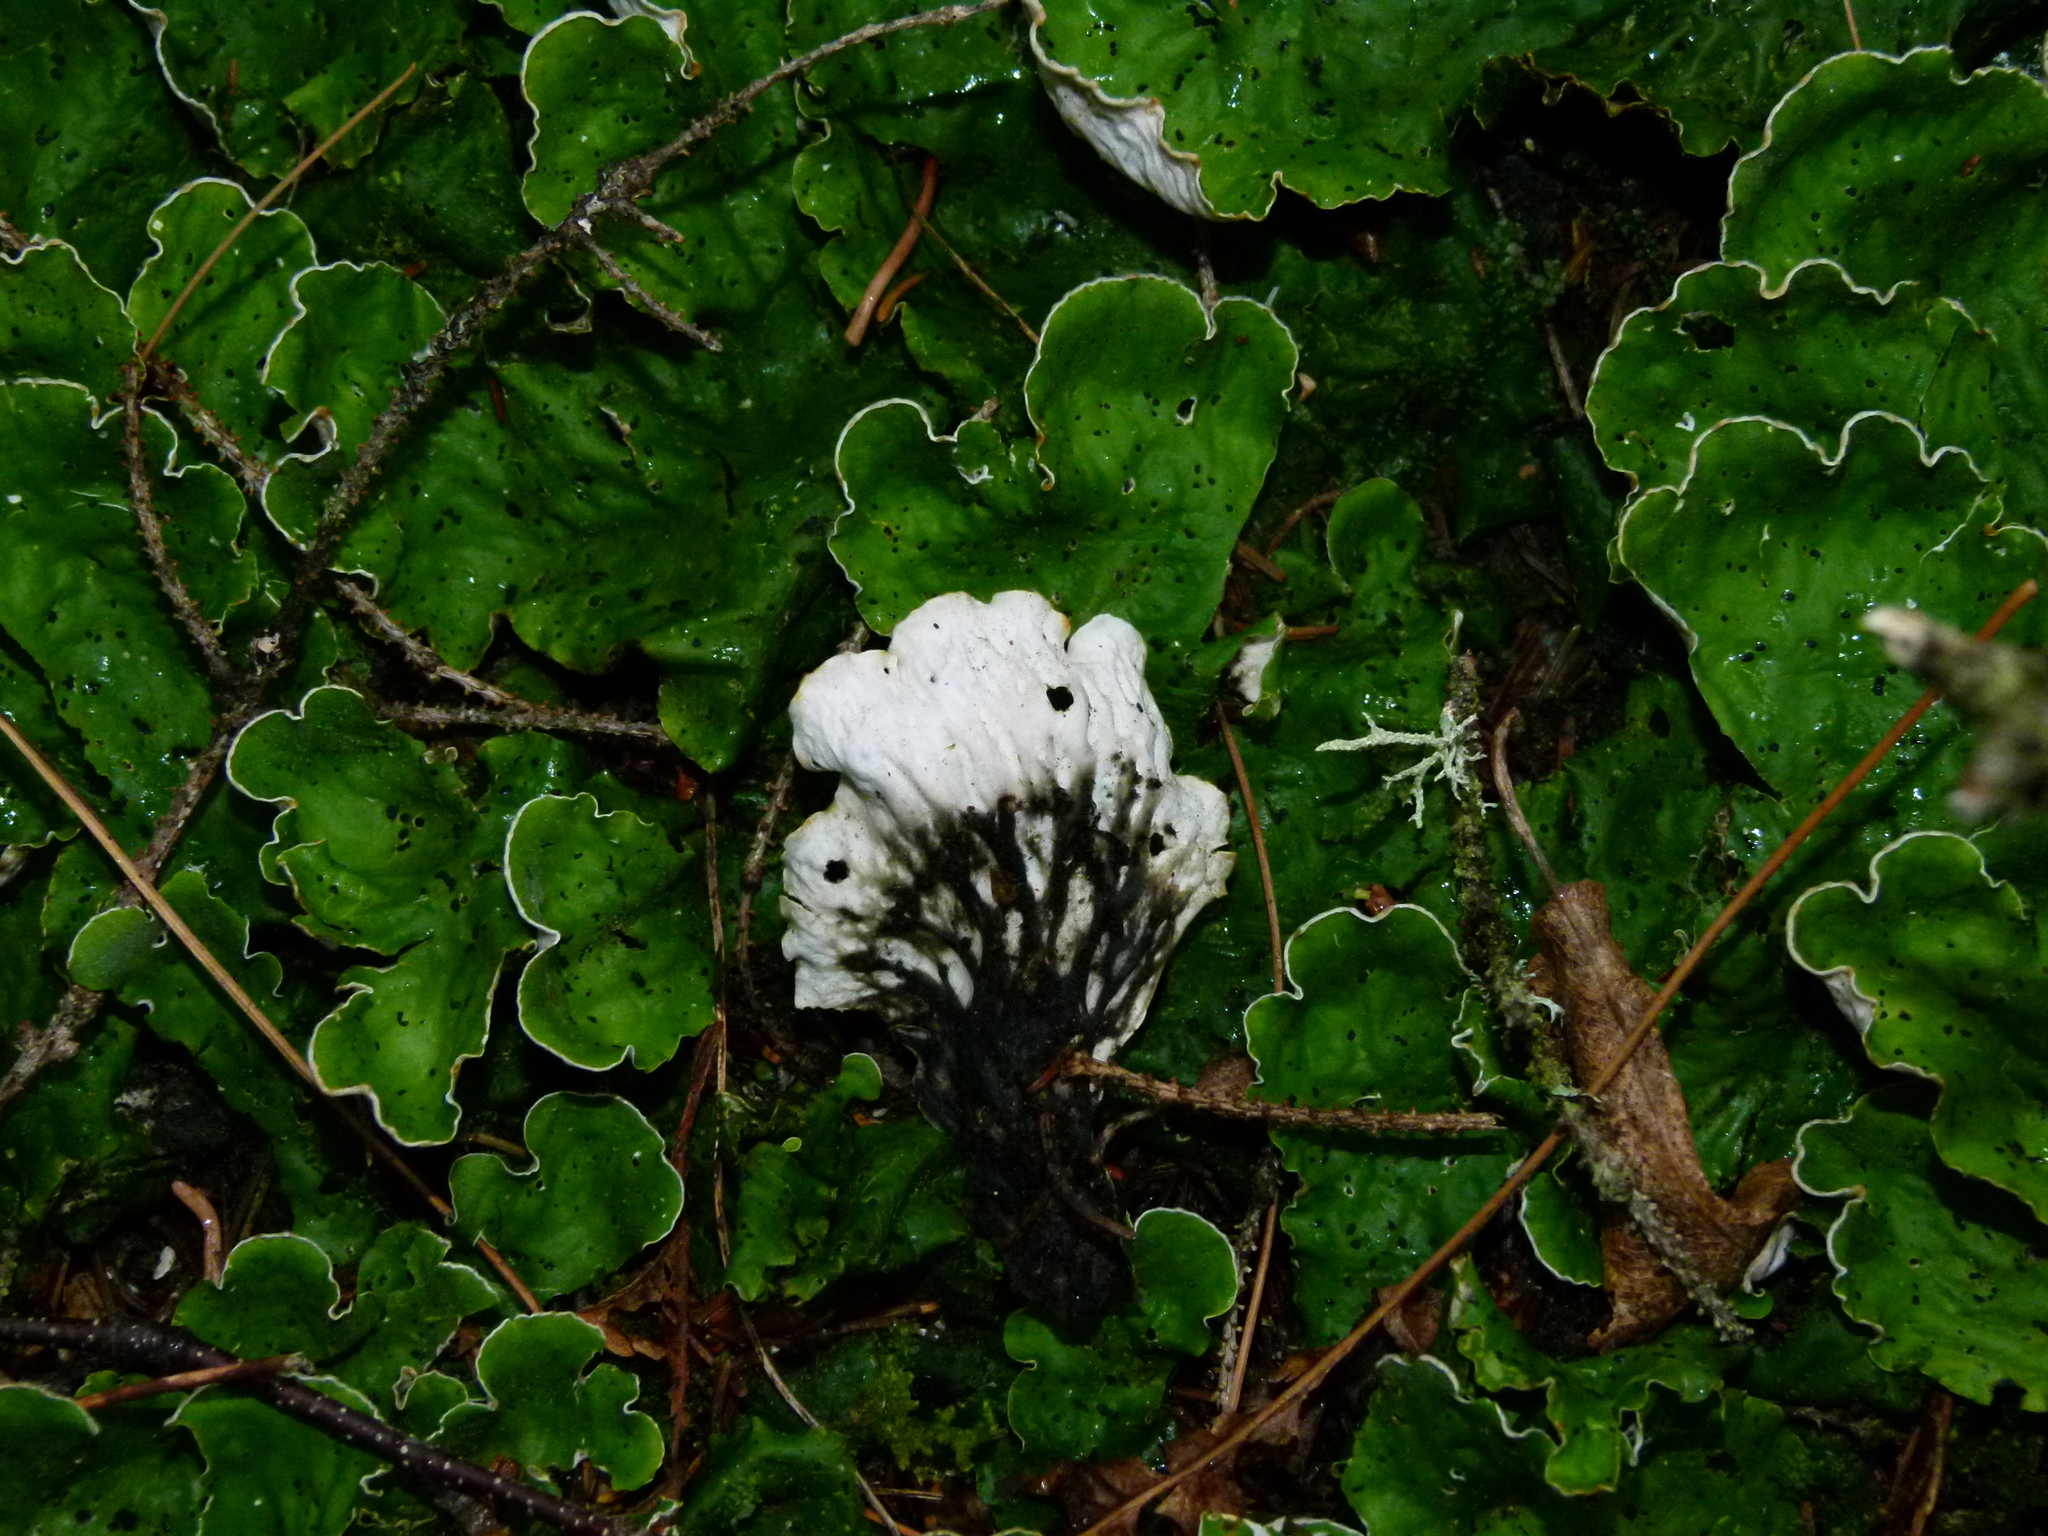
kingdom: Fungi
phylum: Ascomycota
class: Lecanoromycetes
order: Peltigerales
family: Peltigeraceae
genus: Peltigera
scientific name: Peltigera aphthosa
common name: Common freckle pelt lichen
